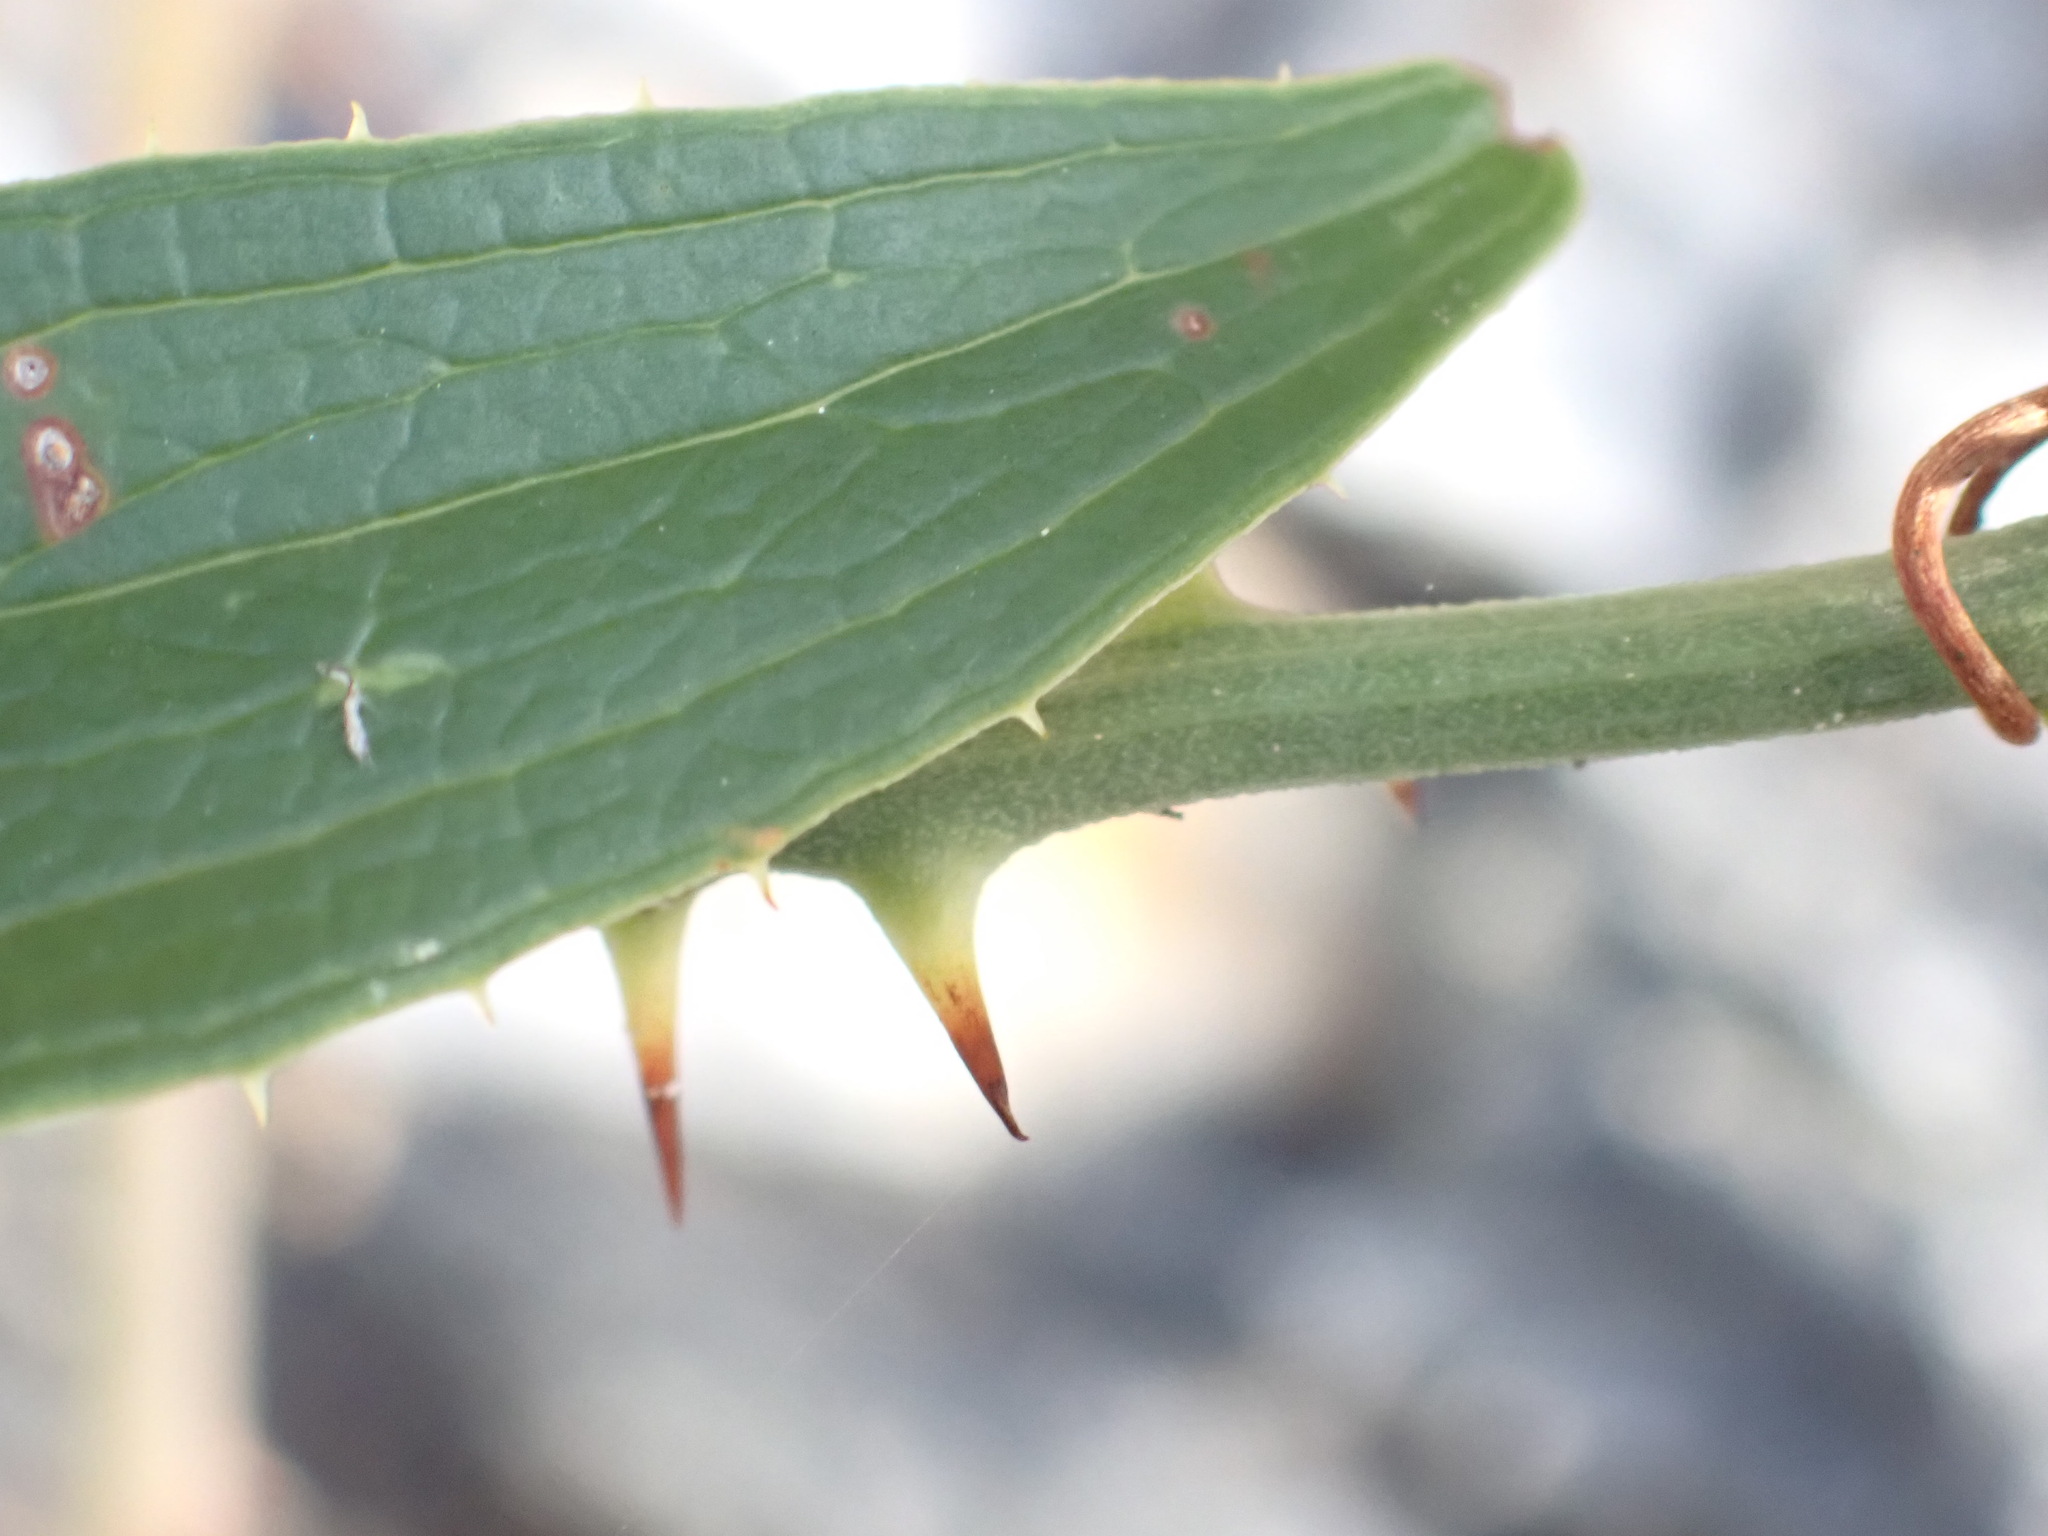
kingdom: Plantae
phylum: Tracheophyta
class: Liliopsida
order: Liliales
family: Smilacaceae
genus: Smilax
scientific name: Smilax aspera
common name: Common smilax
